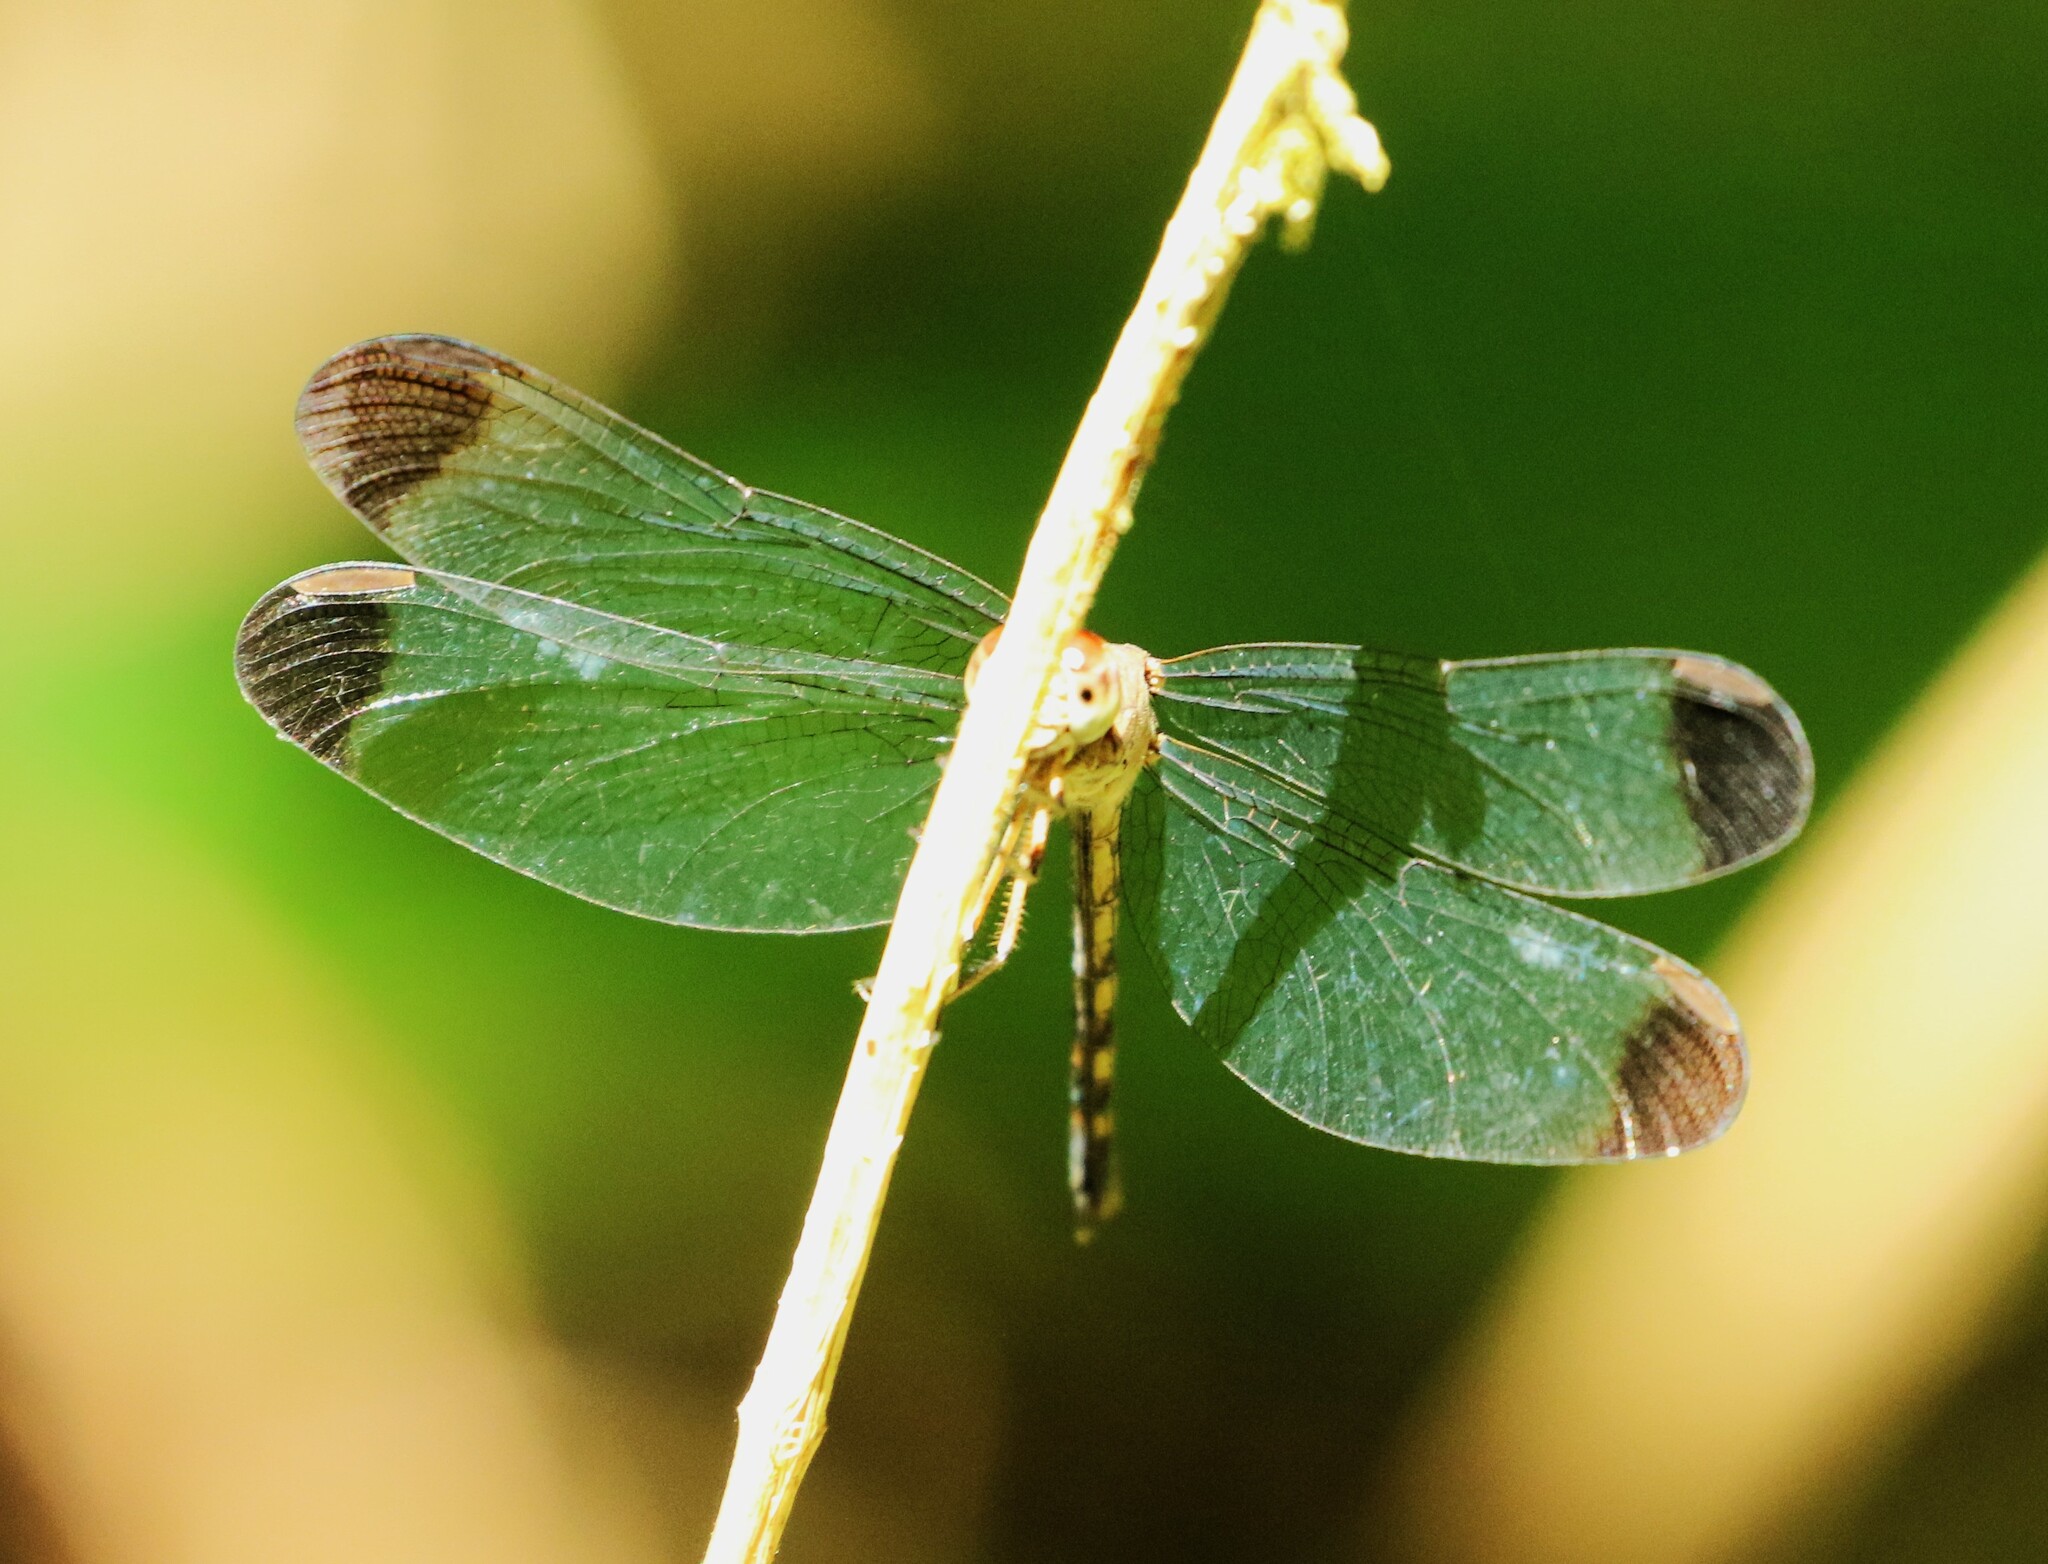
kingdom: Animalia
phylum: Arthropoda
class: Insecta
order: Odonata
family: Libellulidae
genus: Uracis
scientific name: Uracis imbuta
